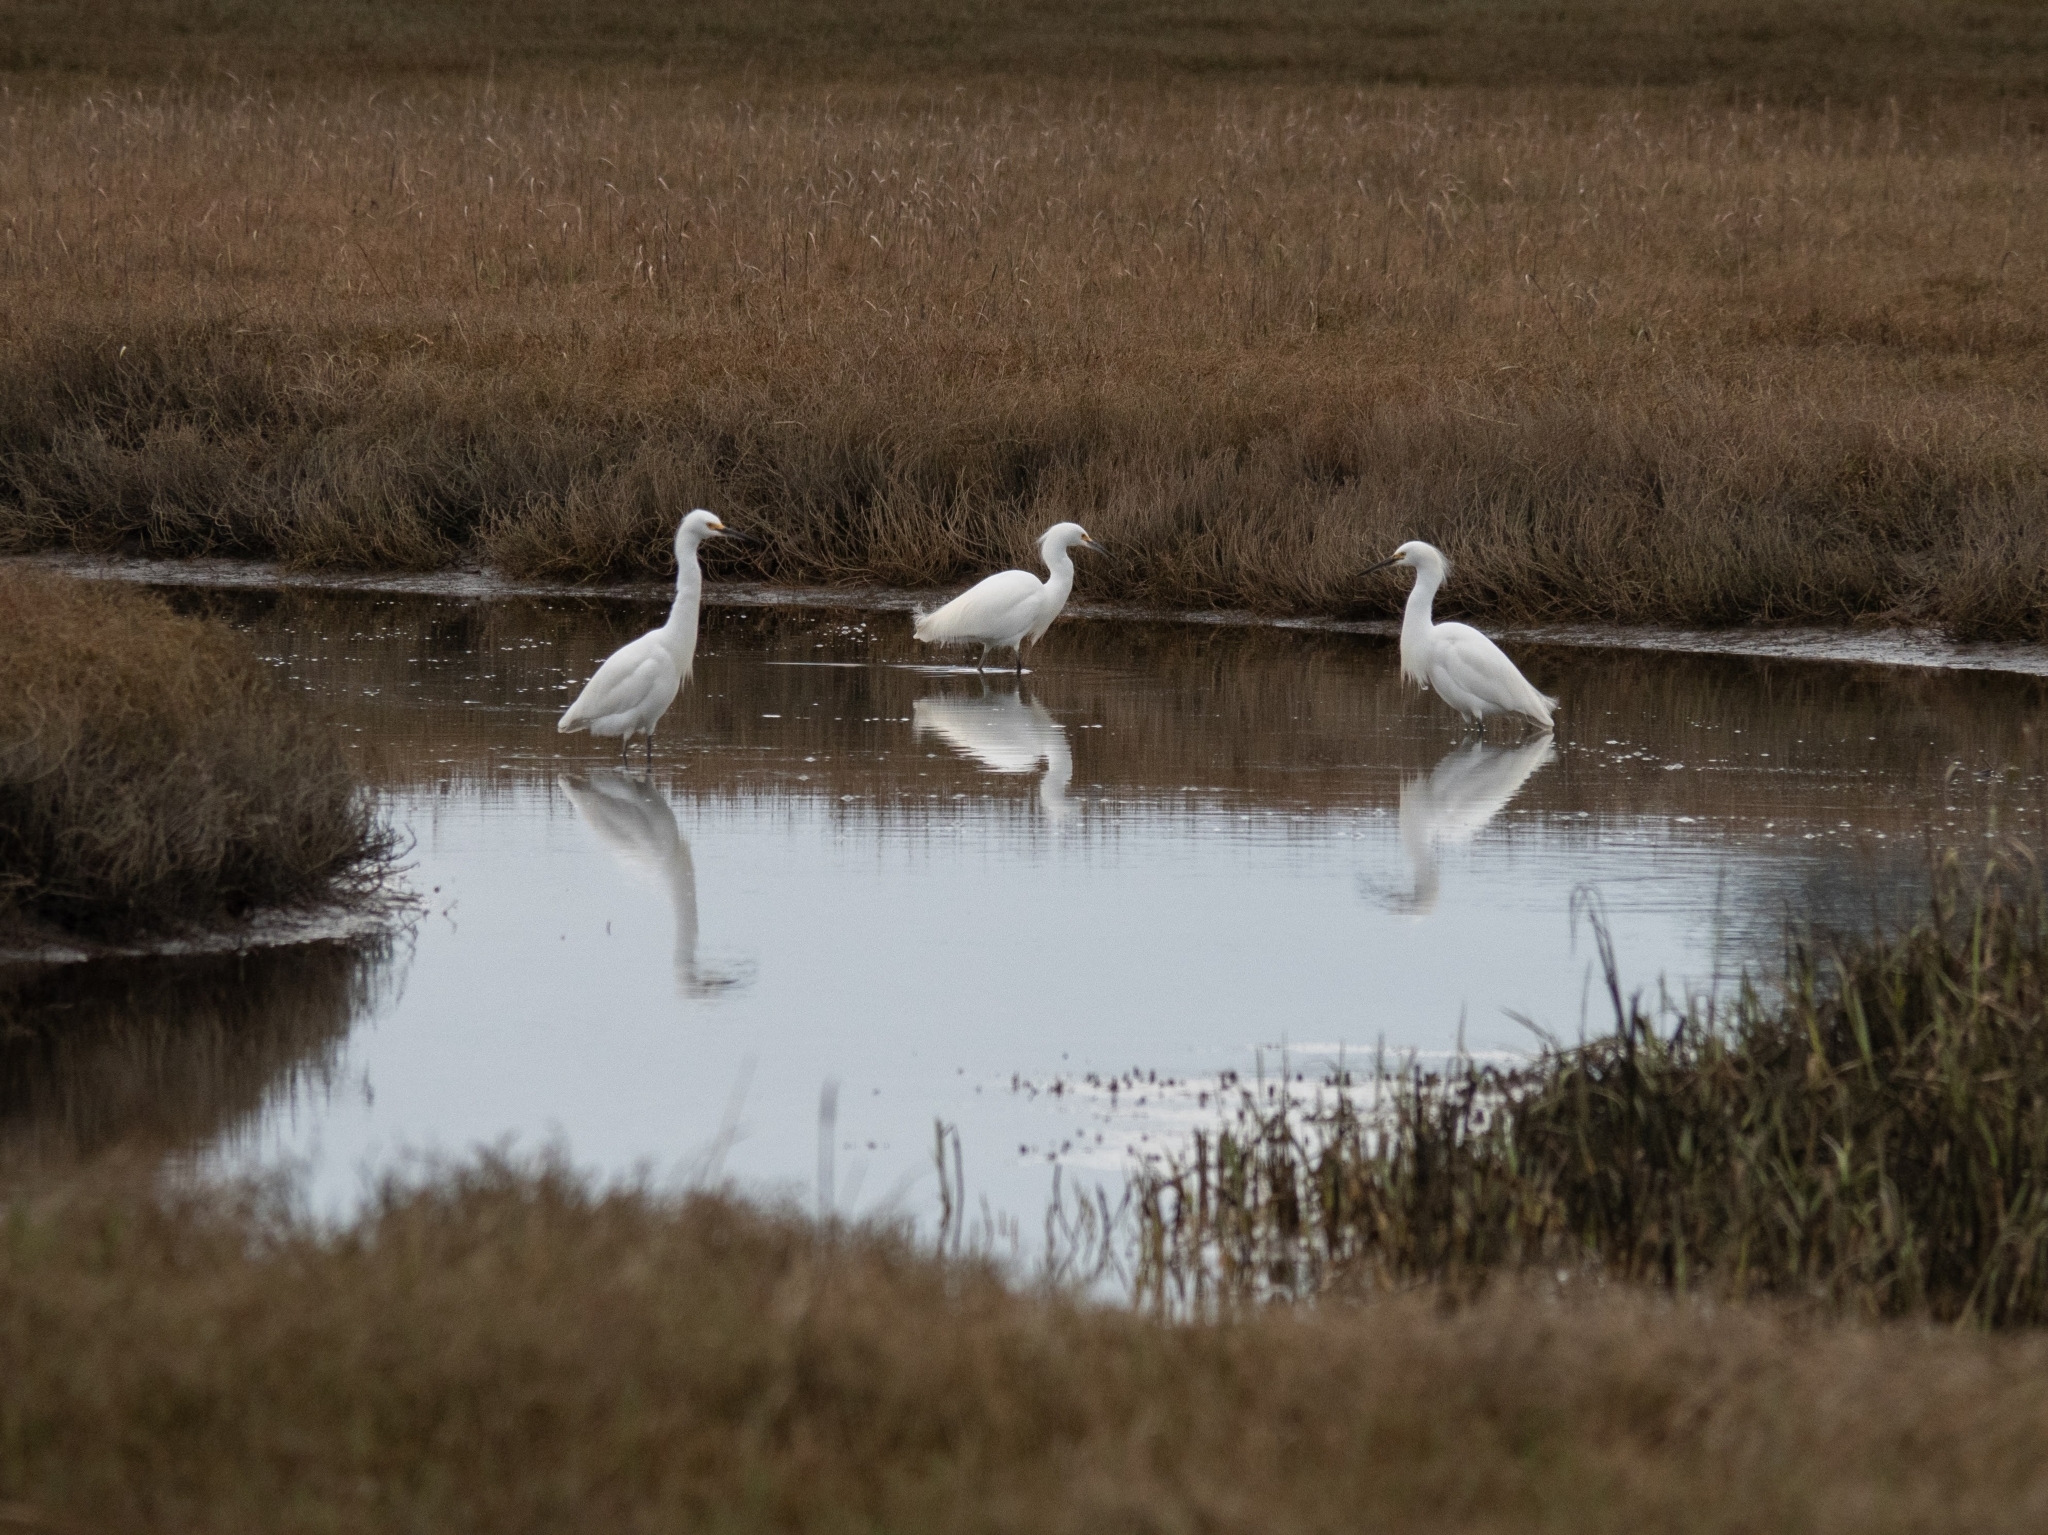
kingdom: Animalia
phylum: Chordata
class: Aves
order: Pelecaniformes
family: Ardeidae
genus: Egretta
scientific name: Egretta thula
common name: Snowy egret
